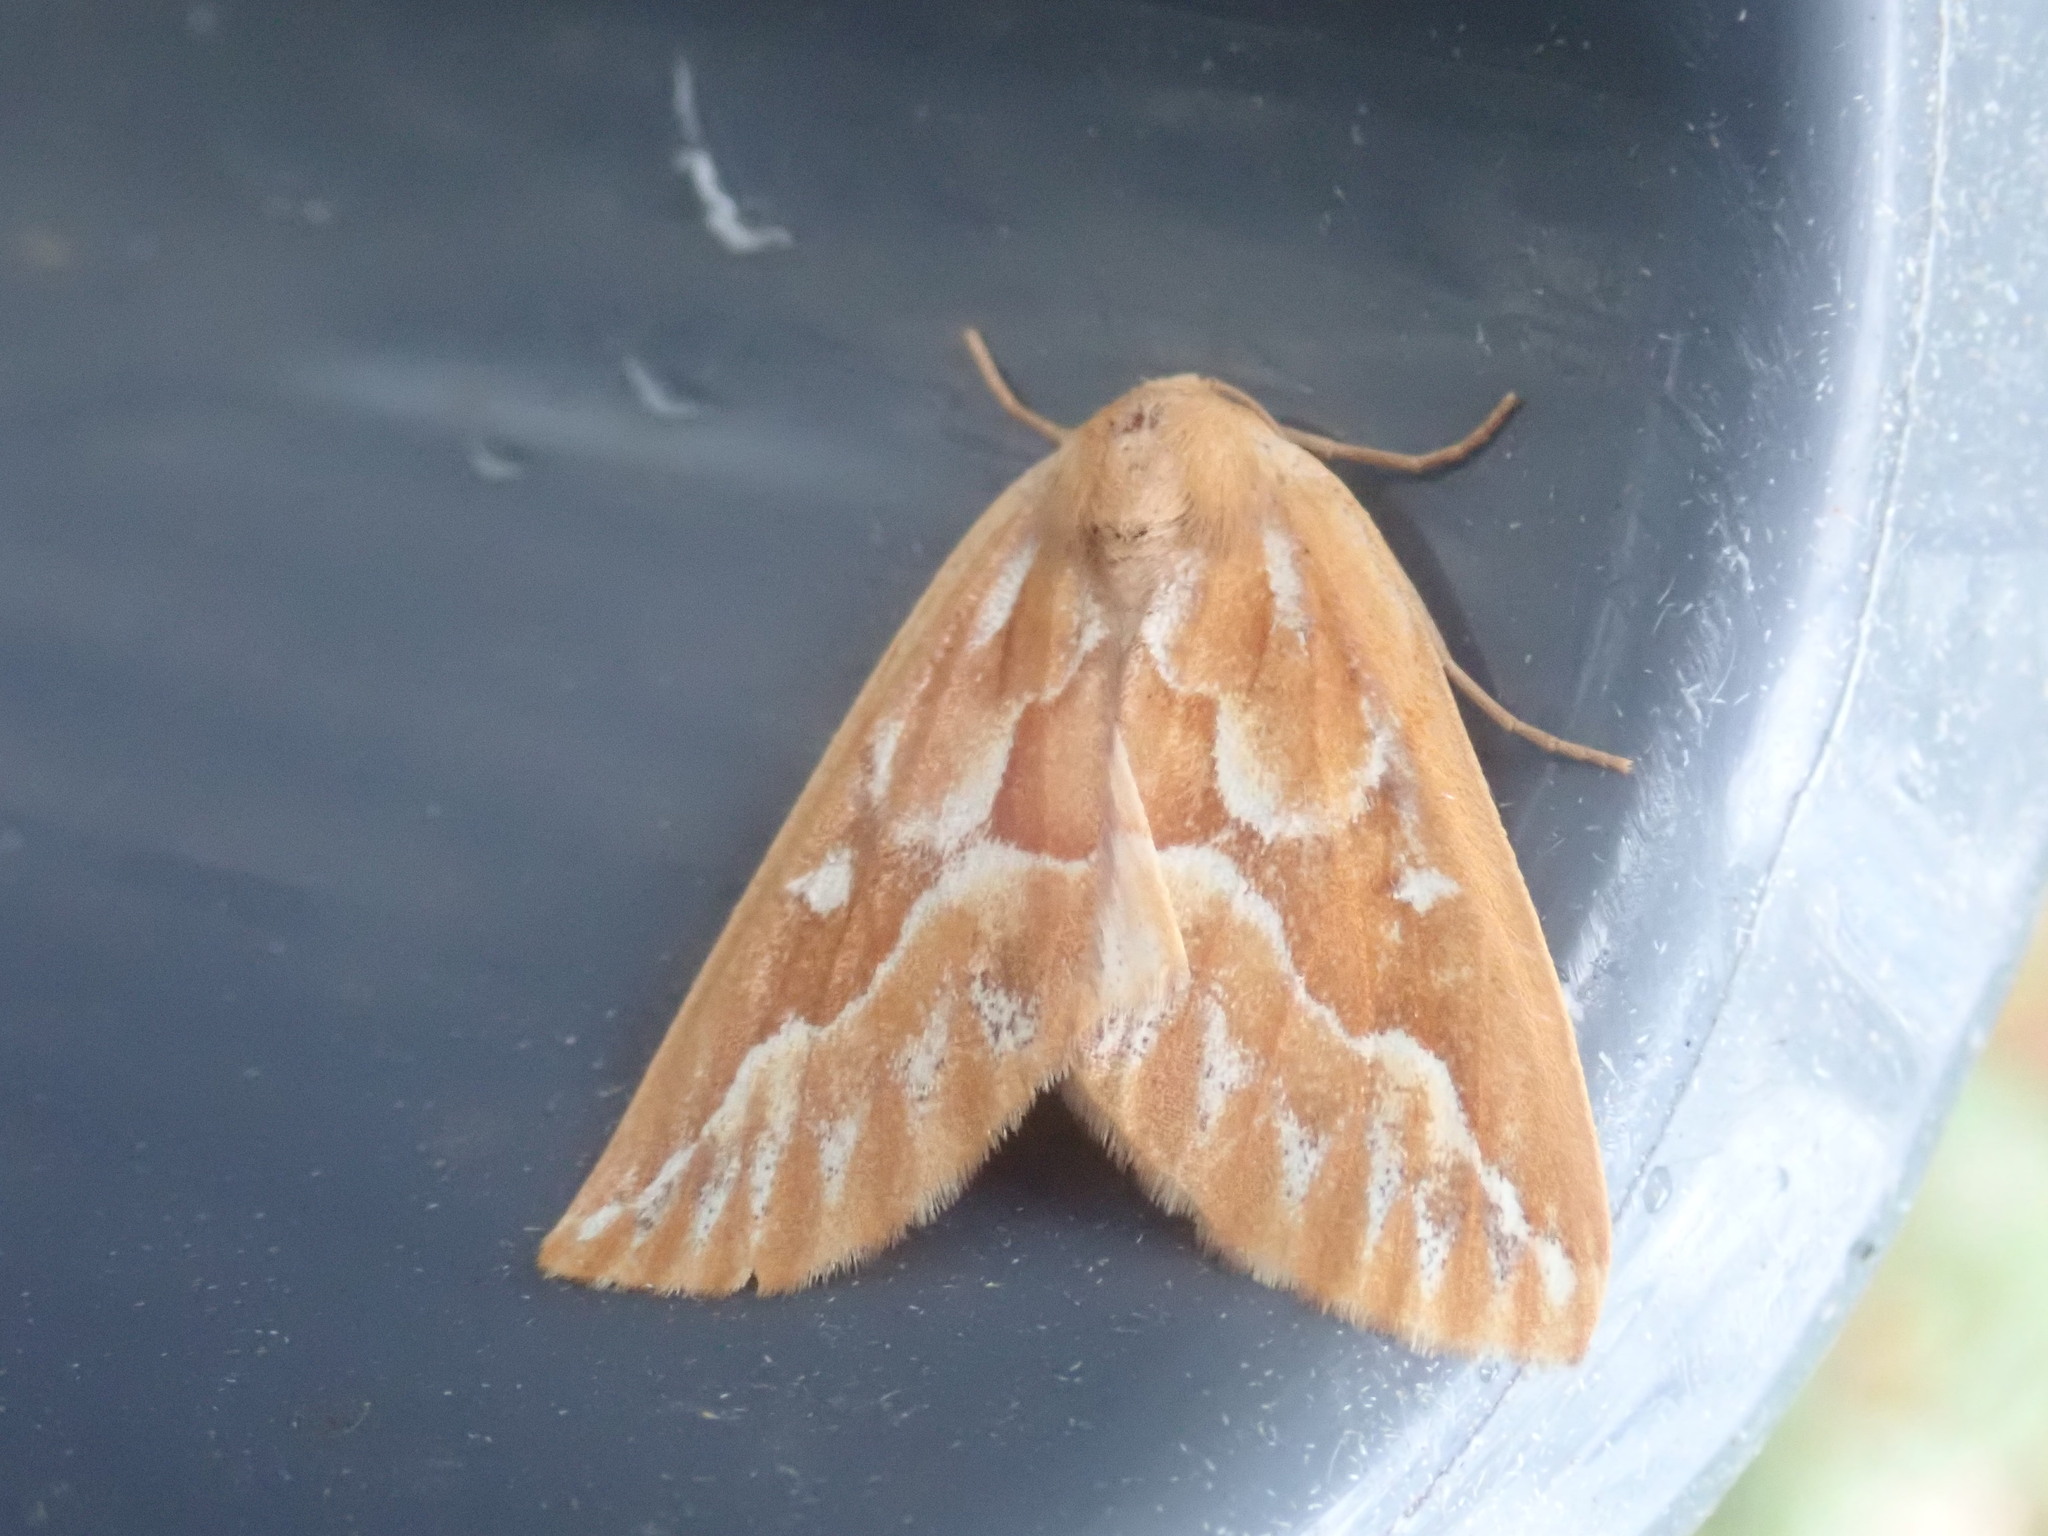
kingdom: Animalia
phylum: Arthropoda
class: Insecta
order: Lepidoptera
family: Geometridae
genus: Caripeta
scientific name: Caripeta piniata
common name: Northern pine looper moth
